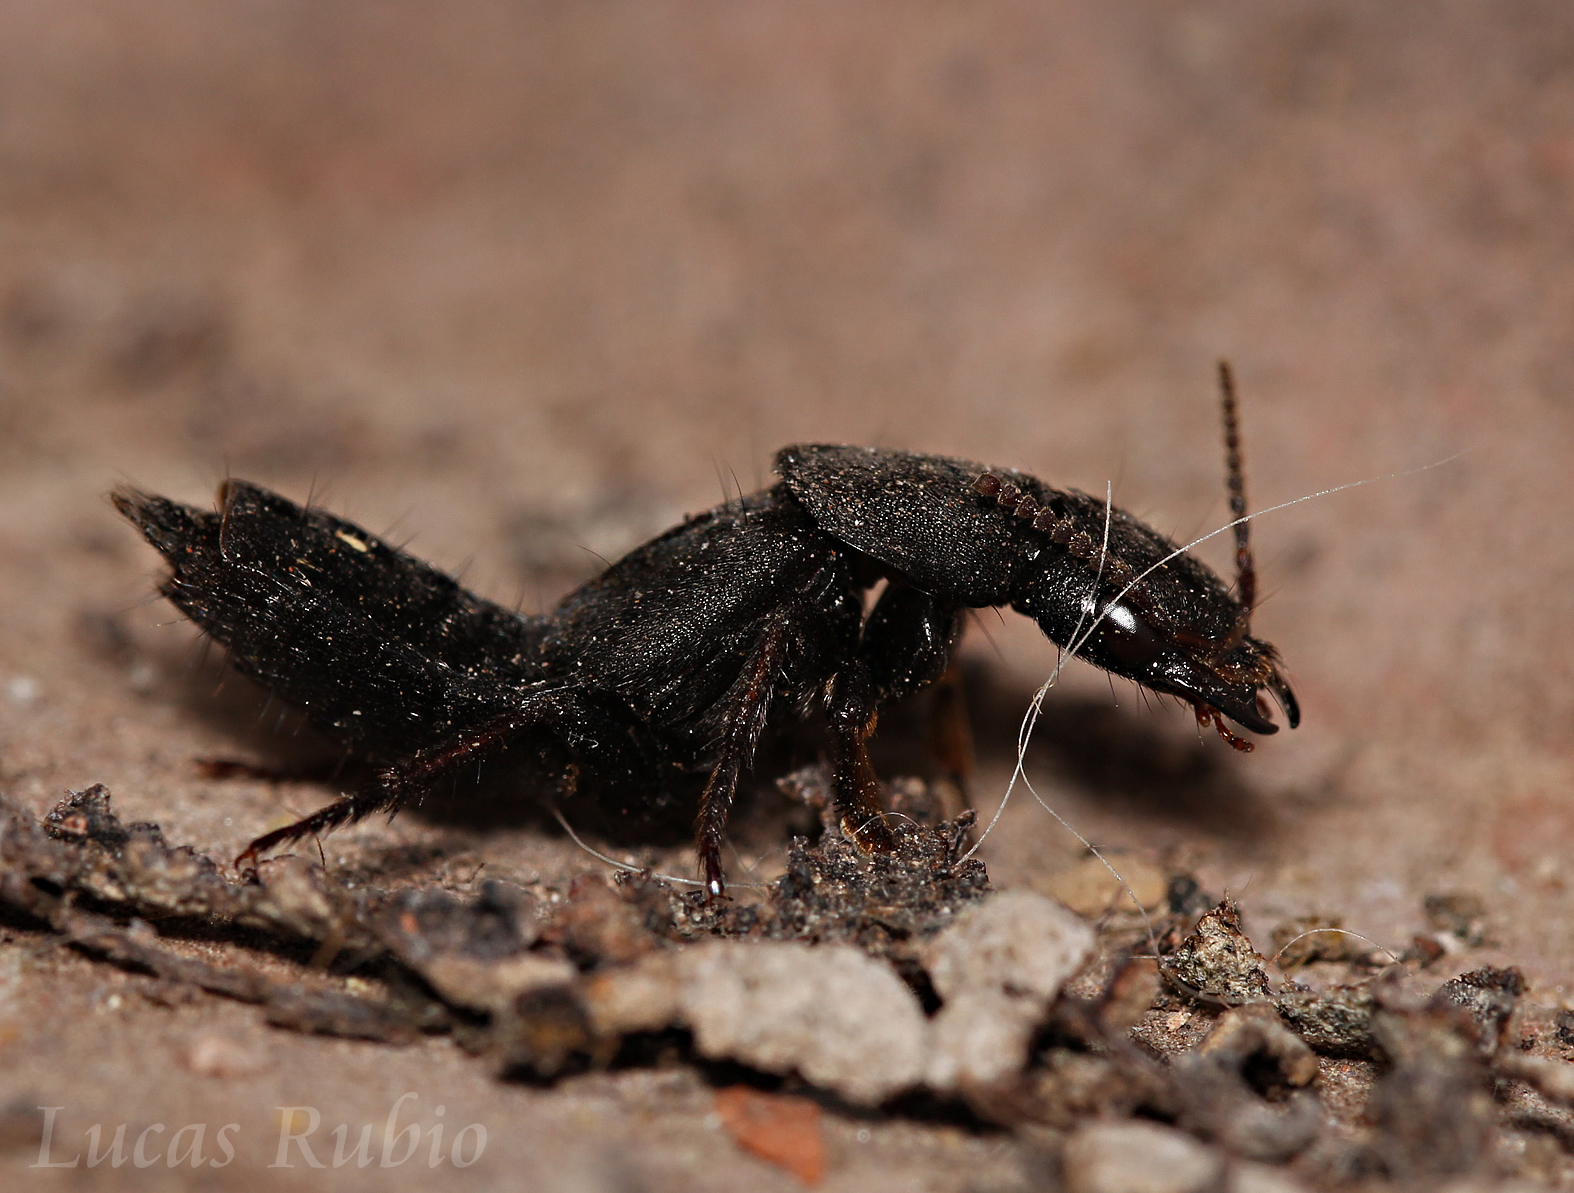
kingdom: Animalia
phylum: Arthropoda
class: Insecta
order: Coleoptera
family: Staphylinidae
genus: Platydracus
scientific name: Platydracus scabrosus
